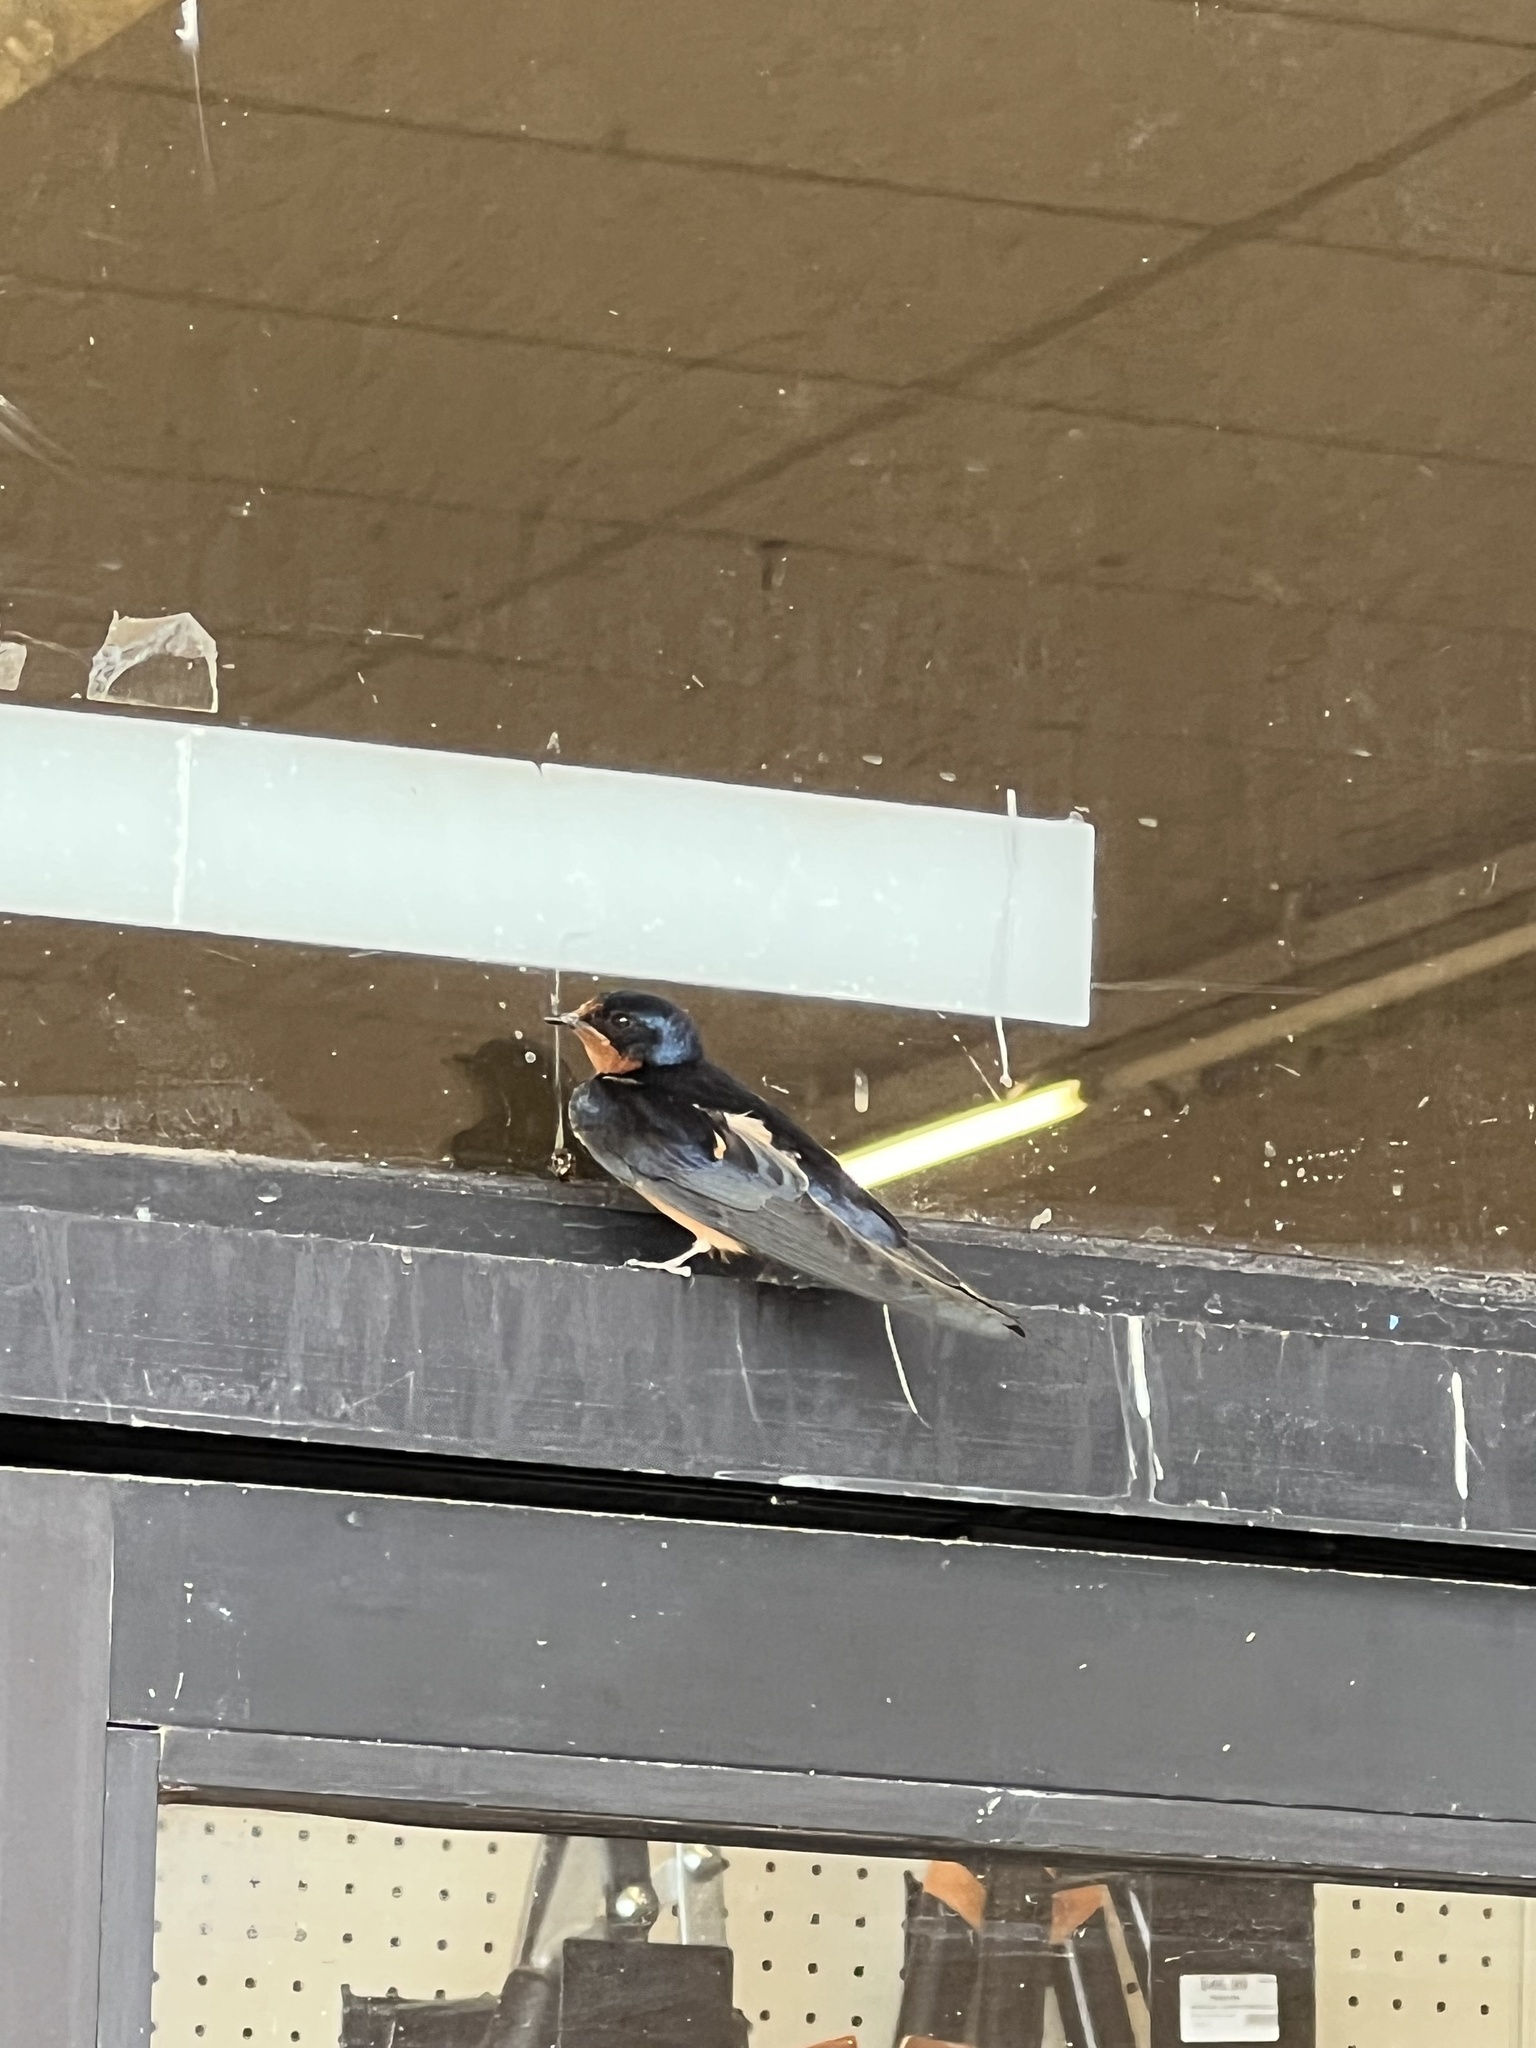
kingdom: Animalia
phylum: Chordata
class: Aves
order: Passeriformes
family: Hirundinidae
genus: Hirundo
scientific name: Hirundo rustica
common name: Barn swallow
